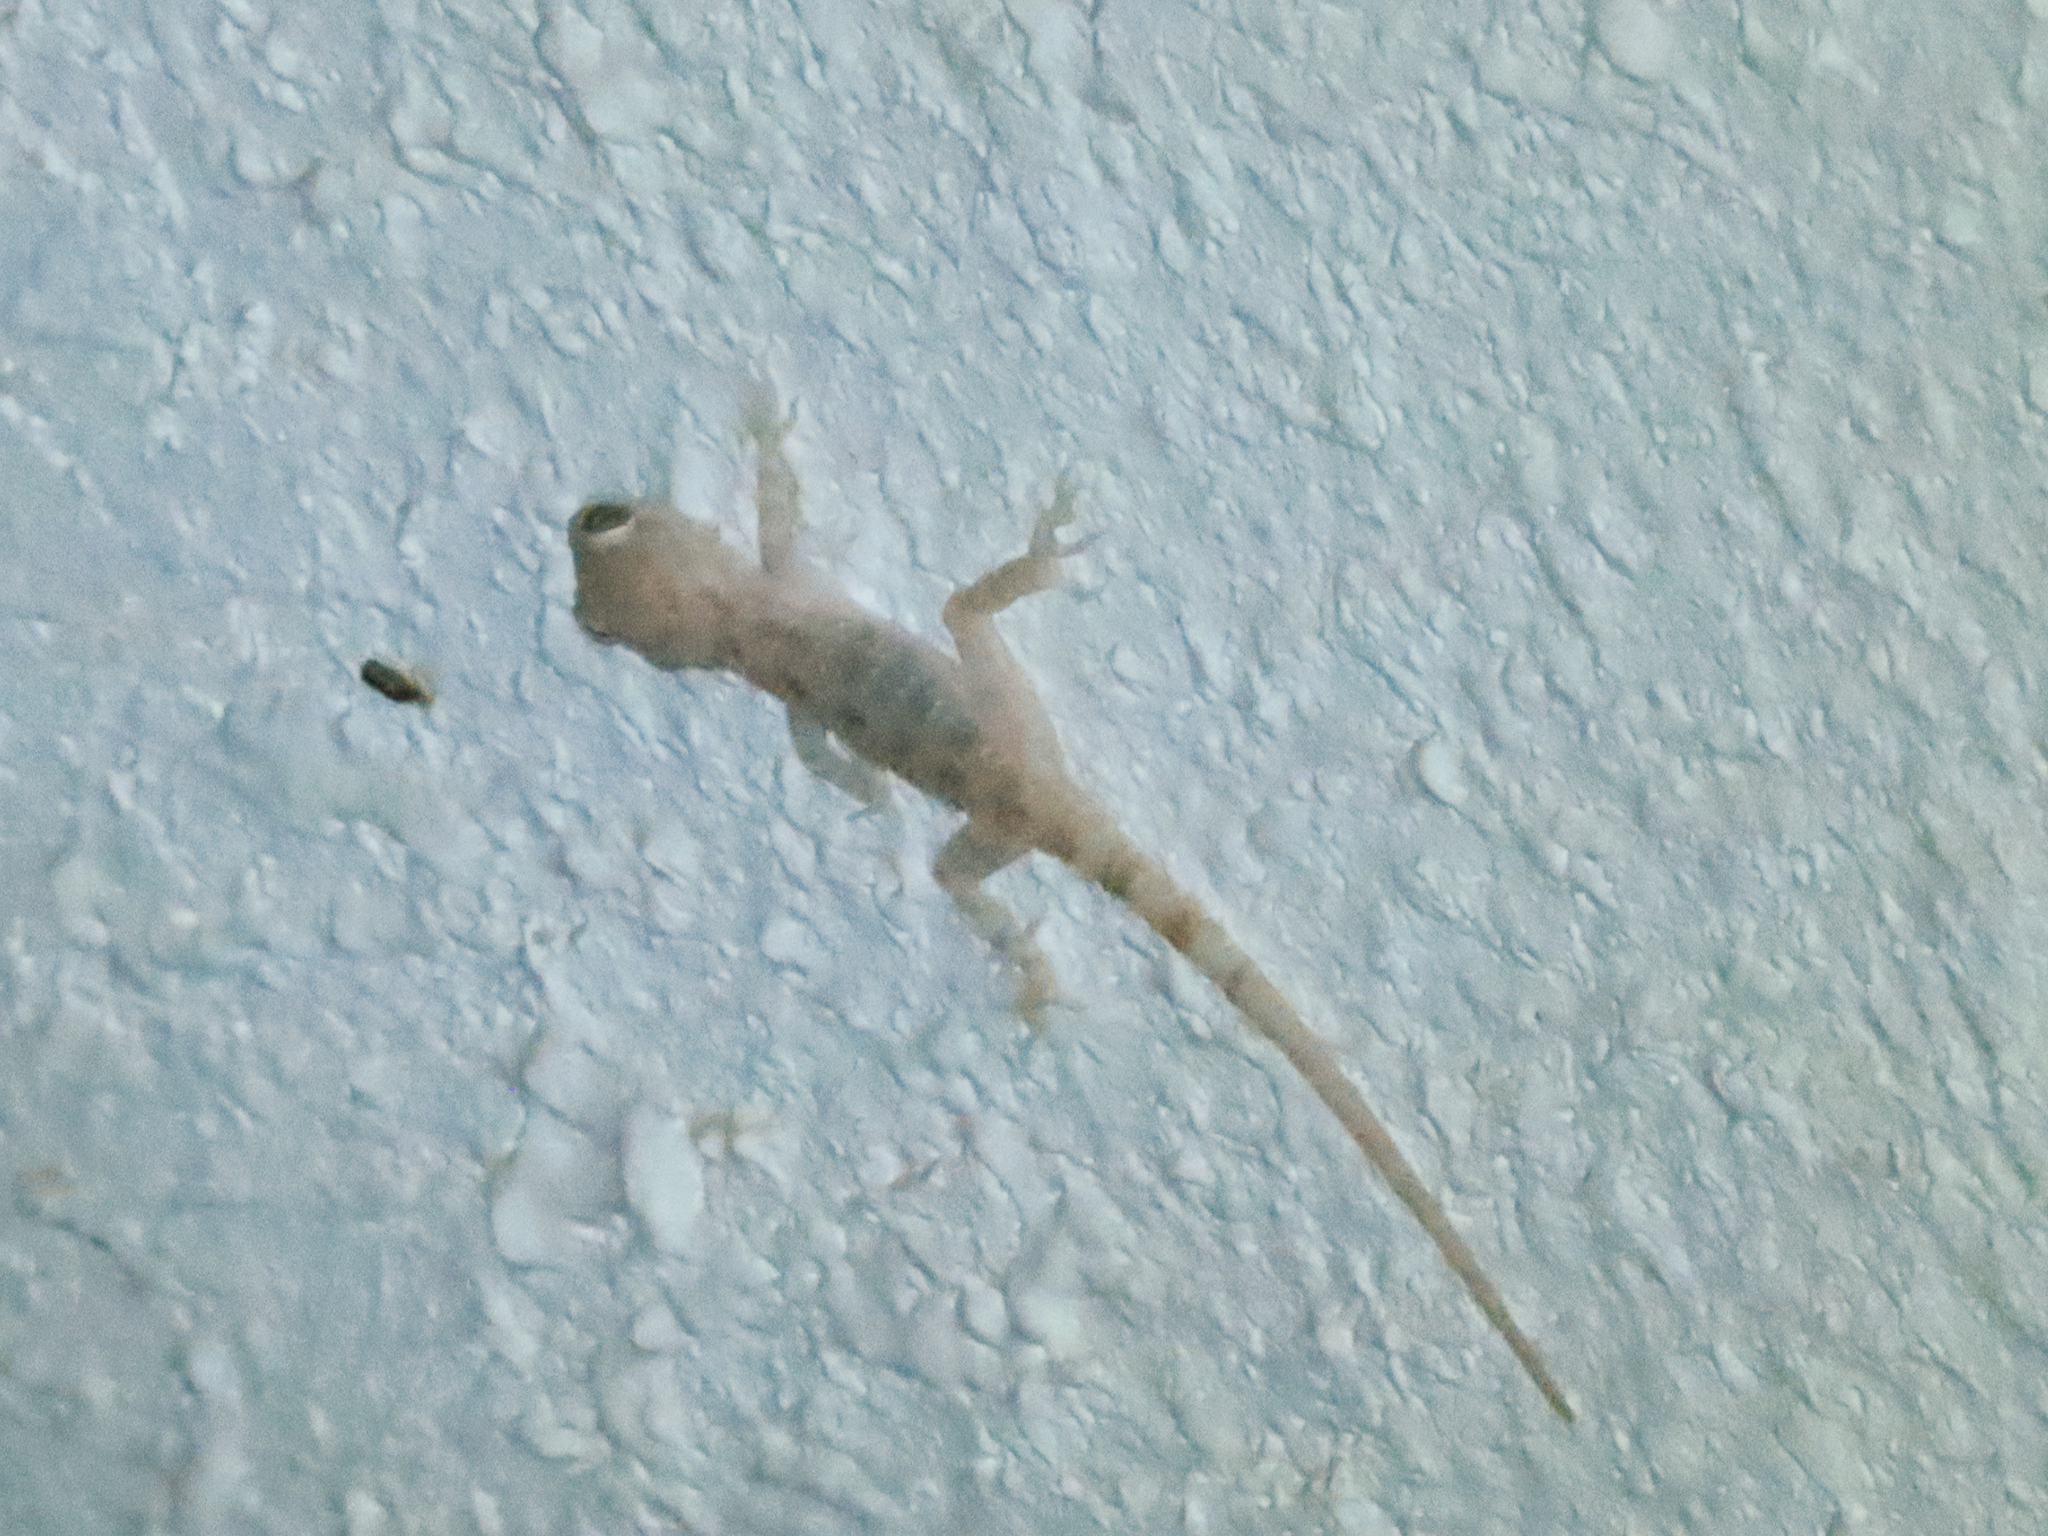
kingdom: Animalia
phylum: Chordata
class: Squamata
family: Gekkonidae
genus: Cyrtopodion
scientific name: Cyrtopodion scabrum
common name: Rough-tailed gecko
